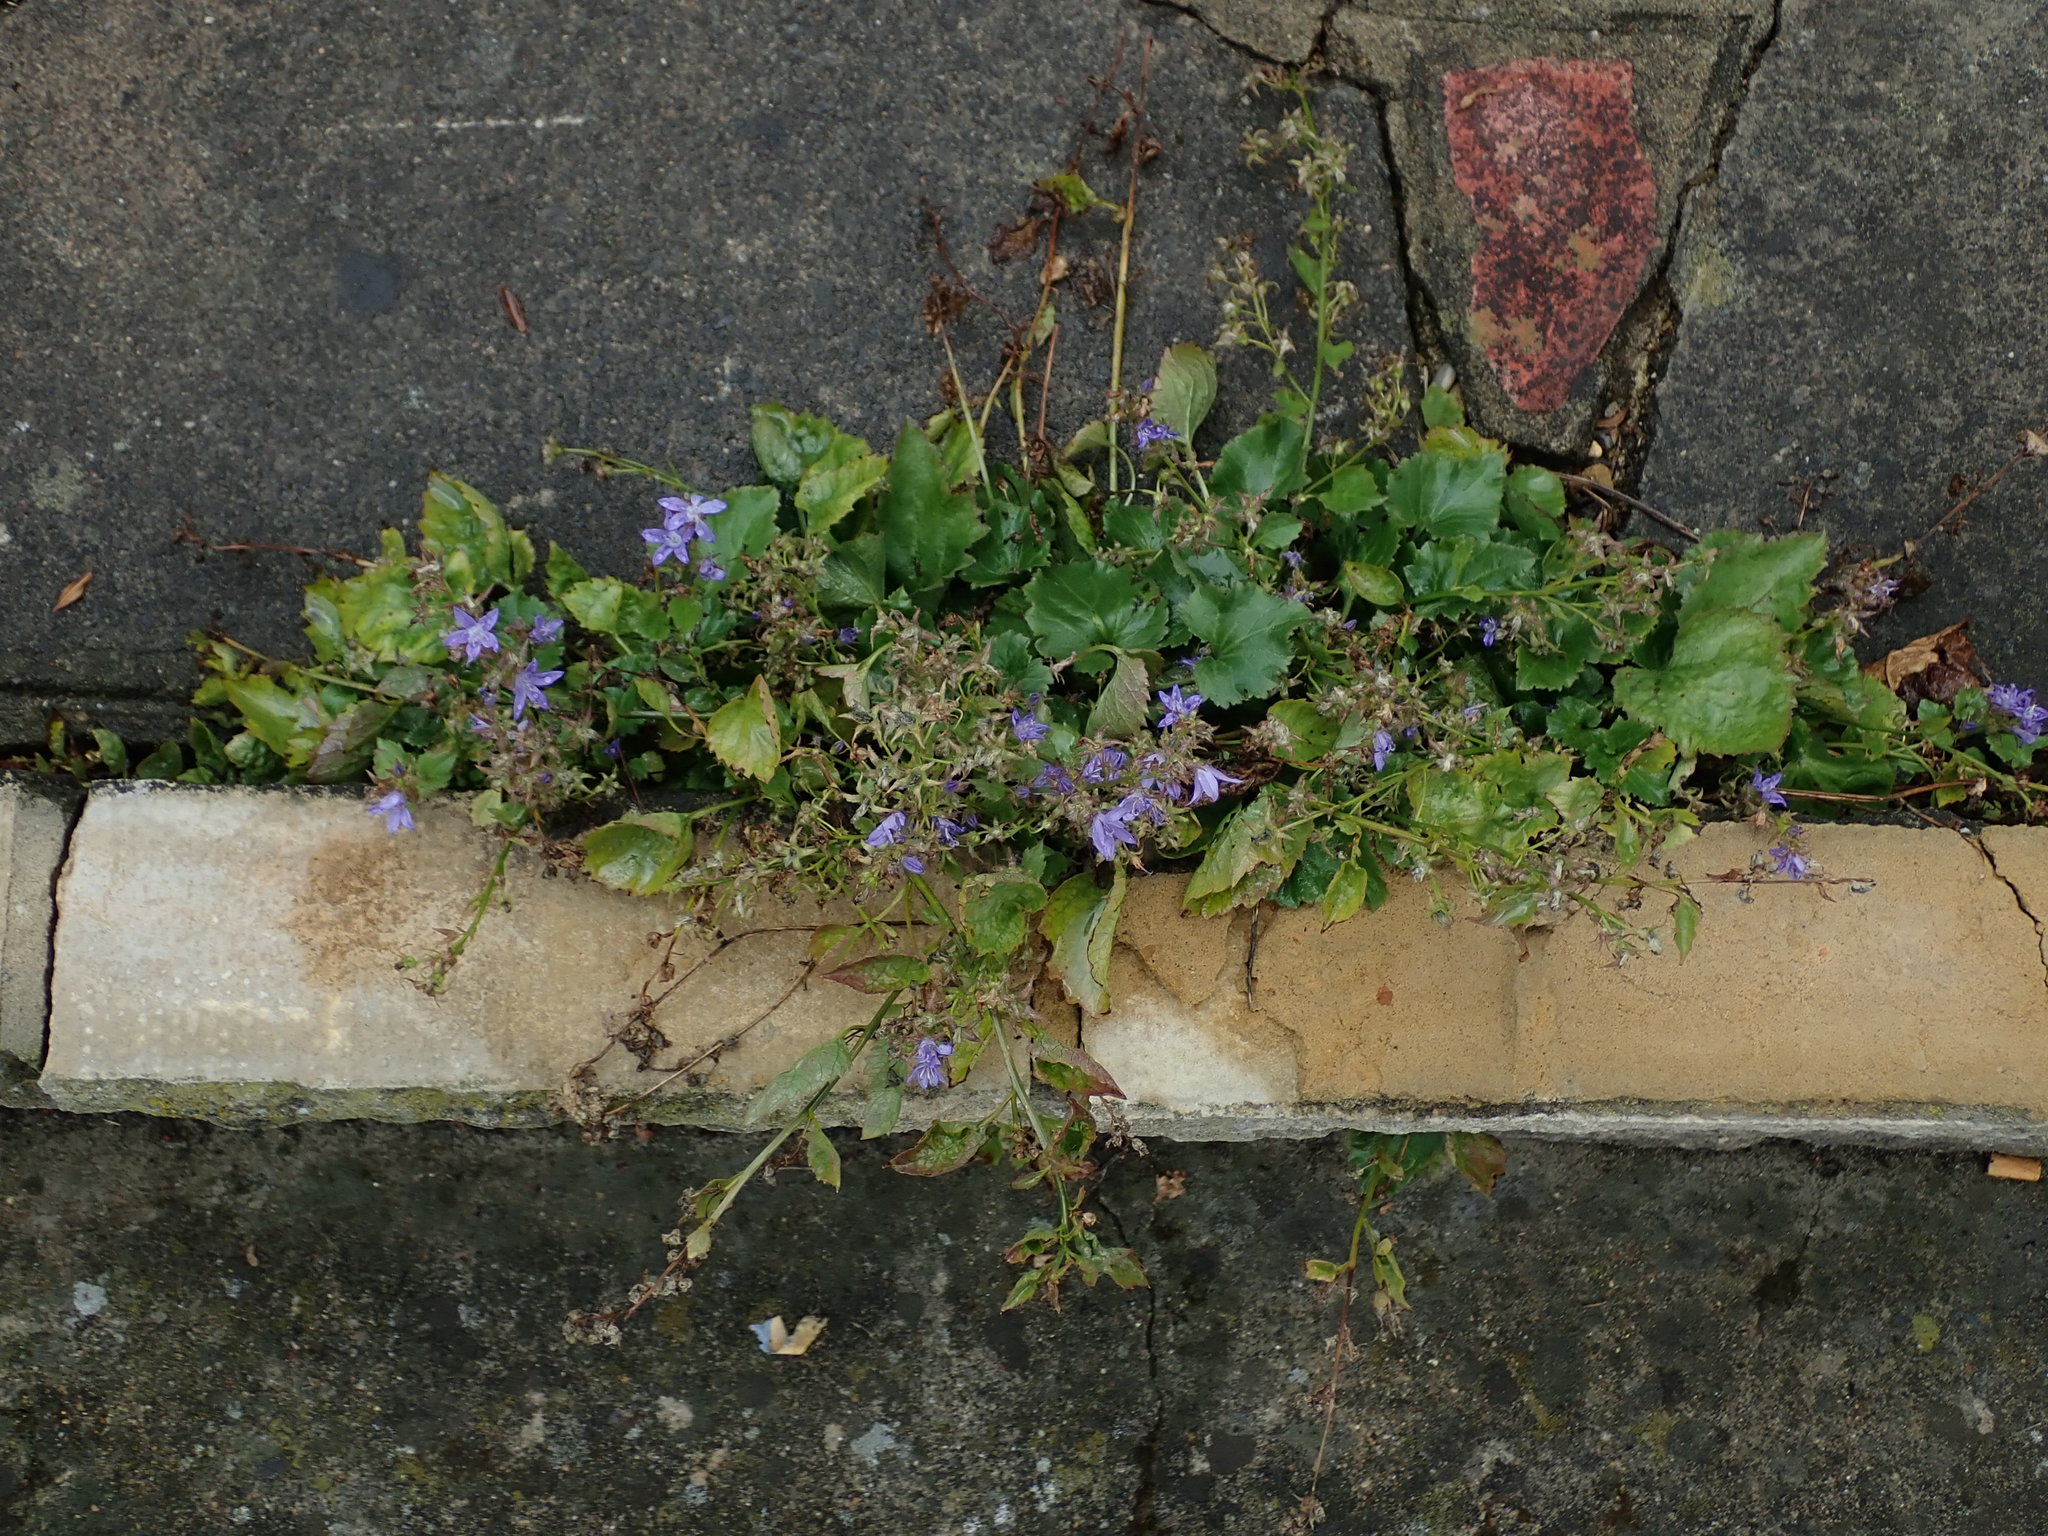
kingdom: Plantae
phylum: Tracheophyta
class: Magnoliopsida
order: Asterales
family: Campanulaceae
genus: Campanula
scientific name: Campanula poscharskyana
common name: Trailing bellflower
